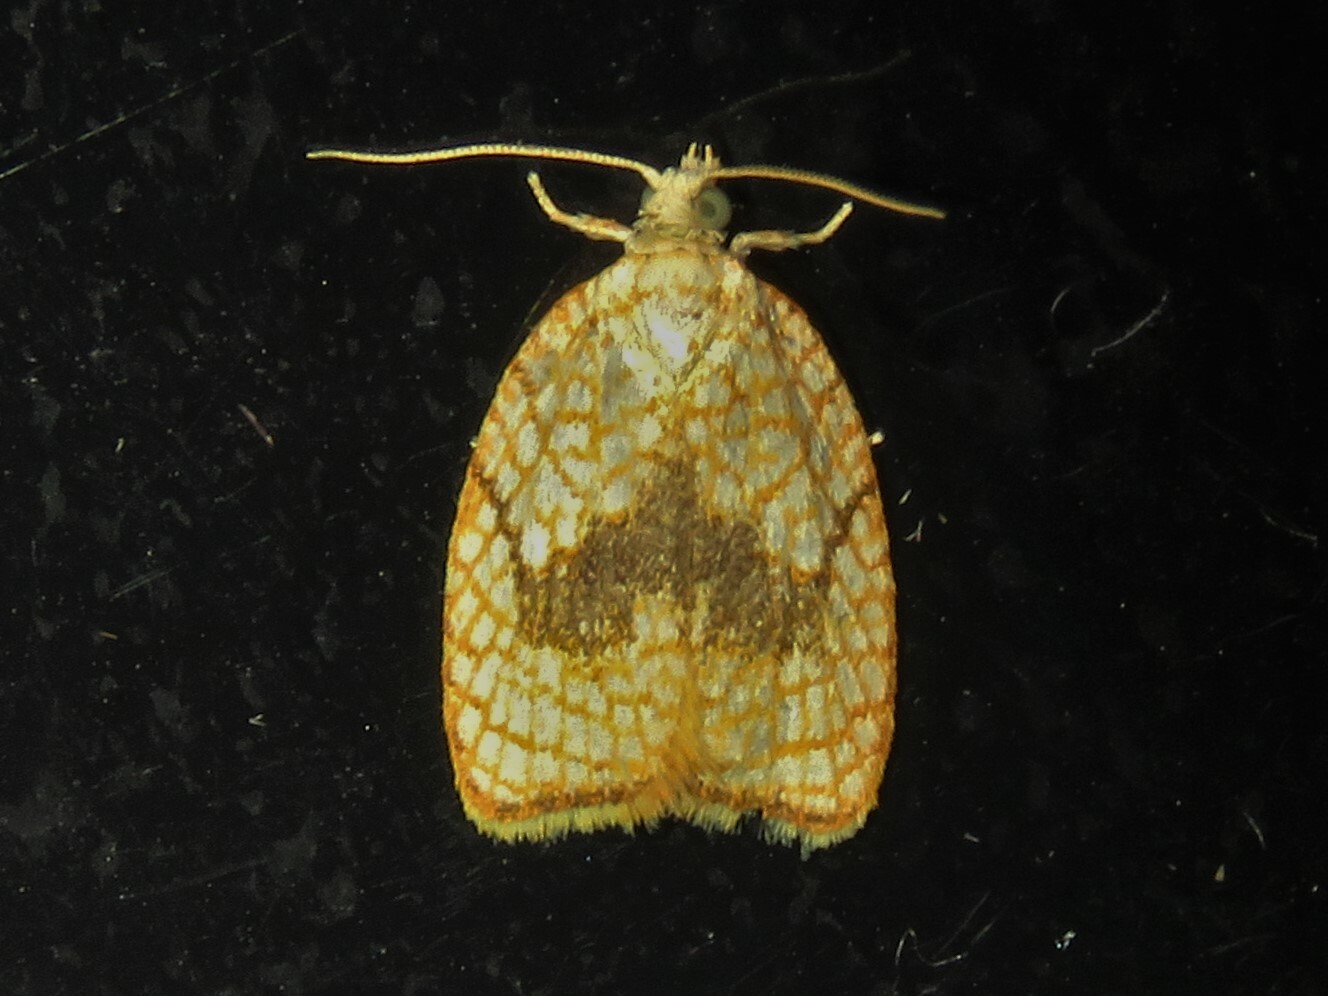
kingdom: Animalia
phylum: Arthropoda
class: Insecta
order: Lepidoptera
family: Tortricidae
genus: Acleris
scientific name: Acleris forsskaleana
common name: Maple button
